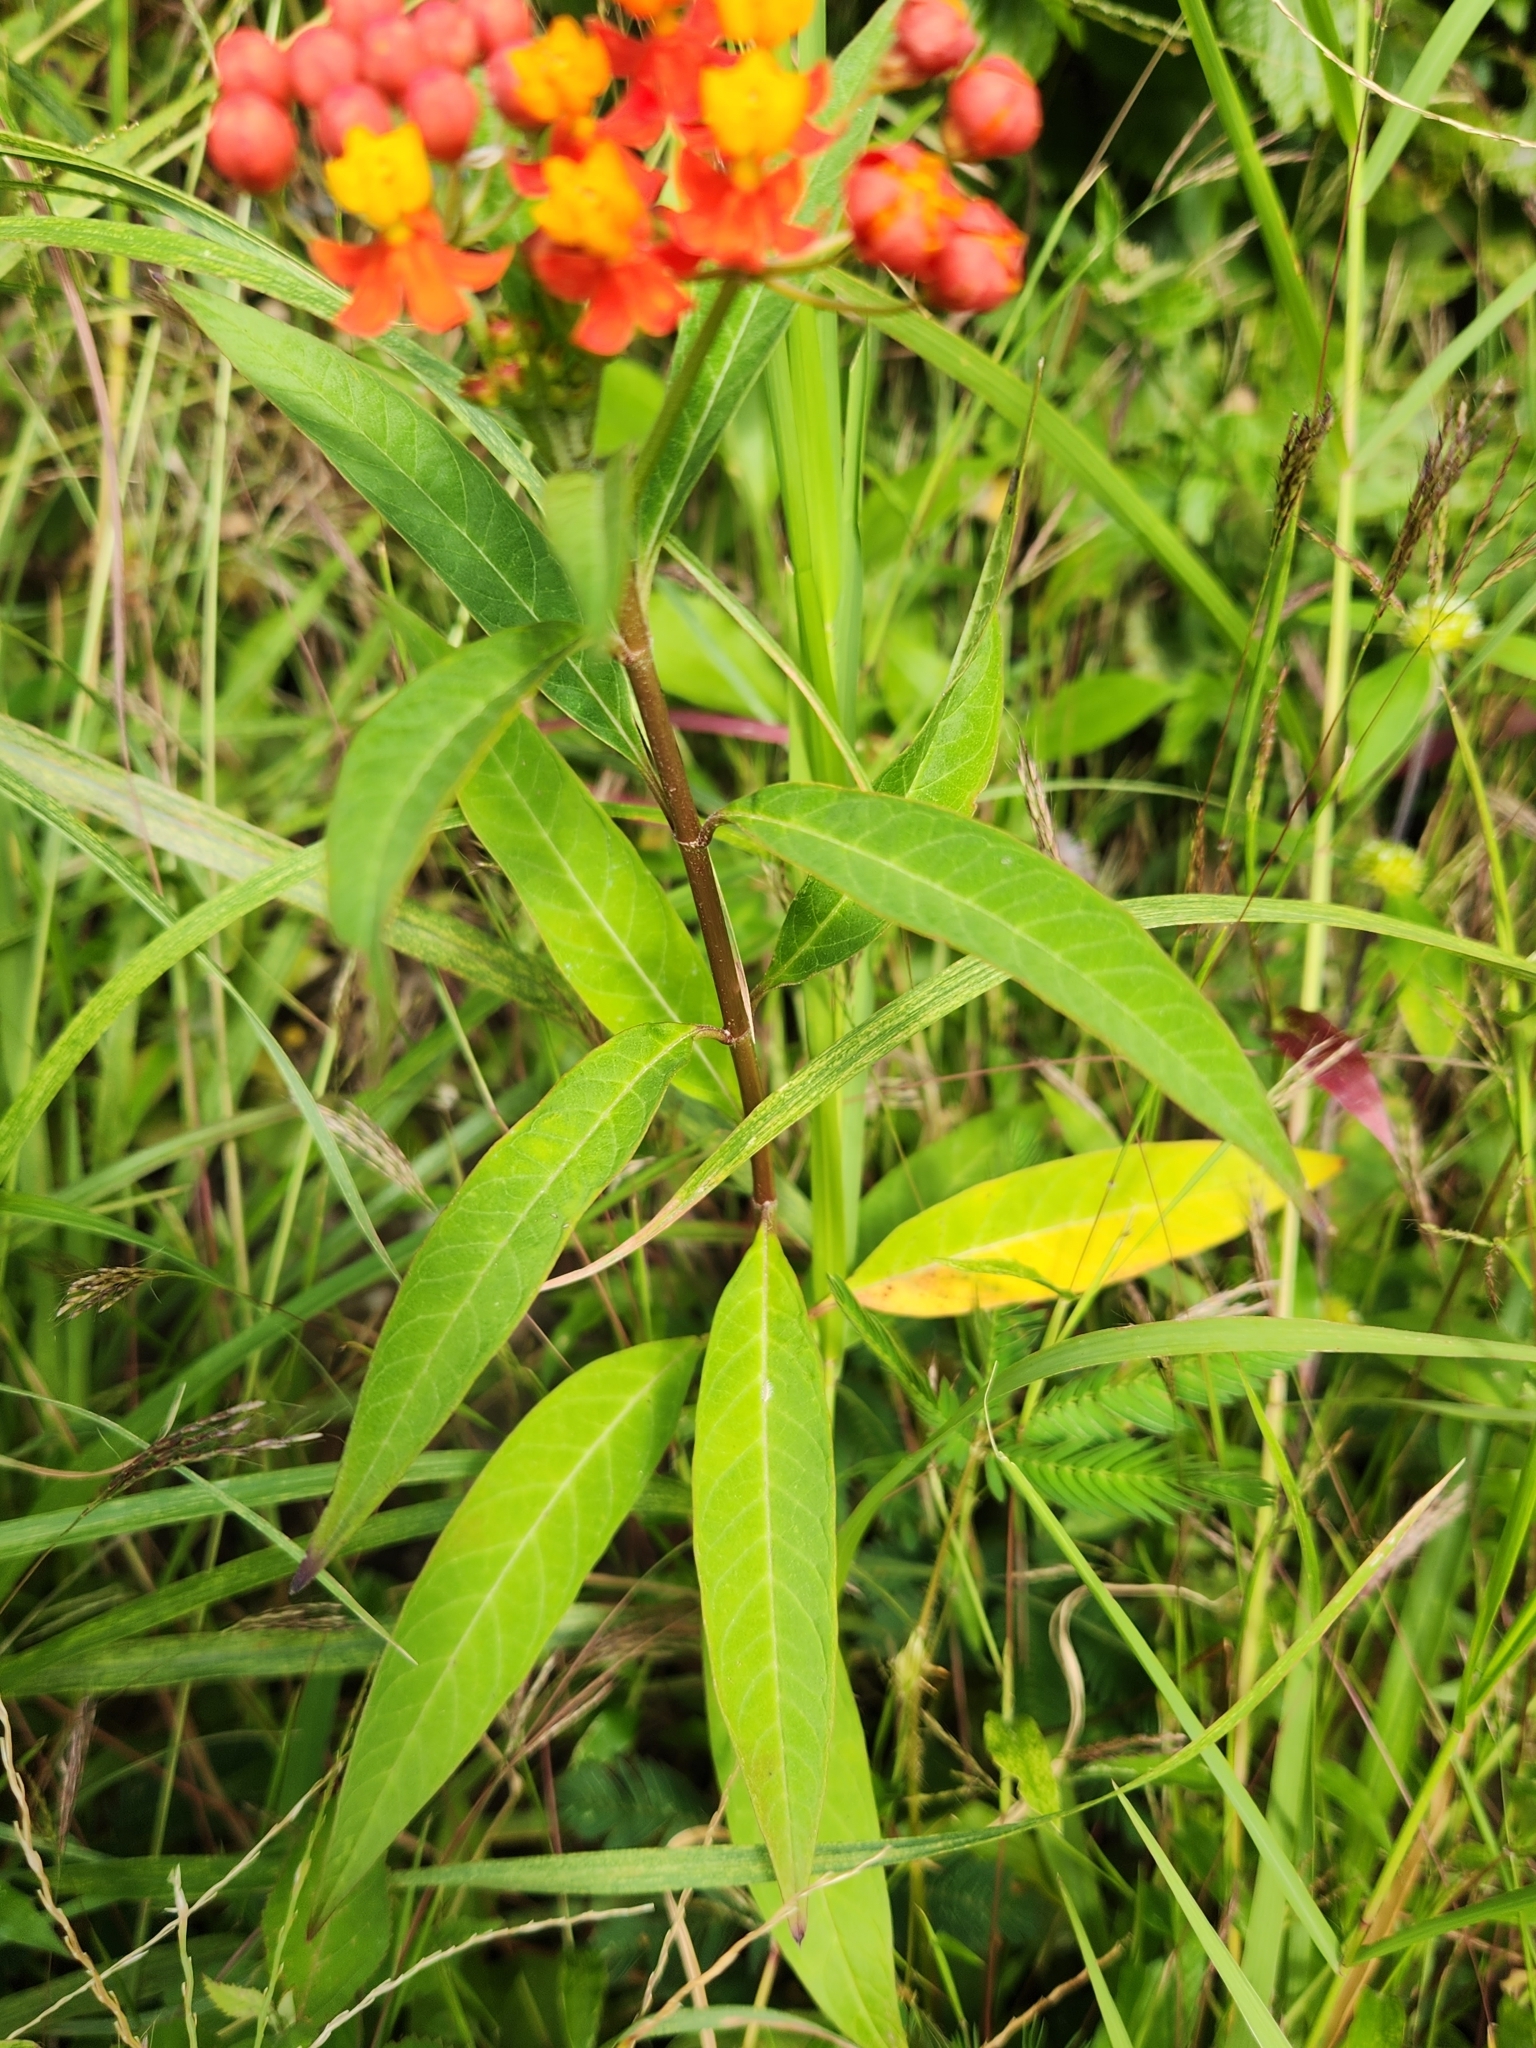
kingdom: Plantae
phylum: Tracheophyta
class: Magnoliopsida
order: Gentianales
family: Apocynaceae
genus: Asclepias
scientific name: Asclepias curassavica
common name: Bloodflower
